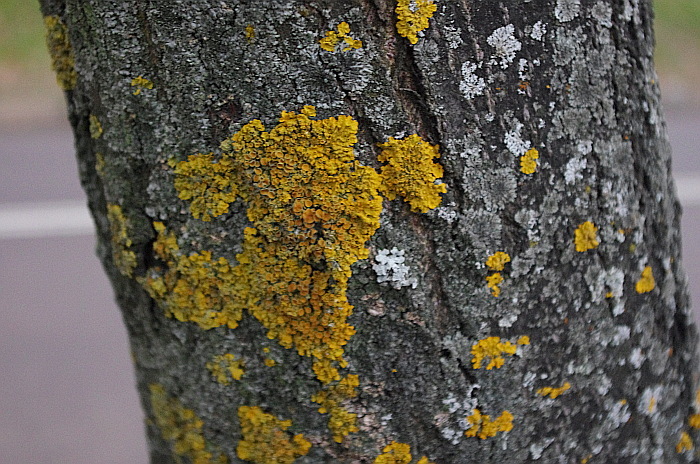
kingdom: Fungi
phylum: Ascomycota
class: Lecanoromycetes
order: Teloschistales
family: Teloschistaceae
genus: Xanthoria
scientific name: Xanthoria parietina
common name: Common orange lichen
